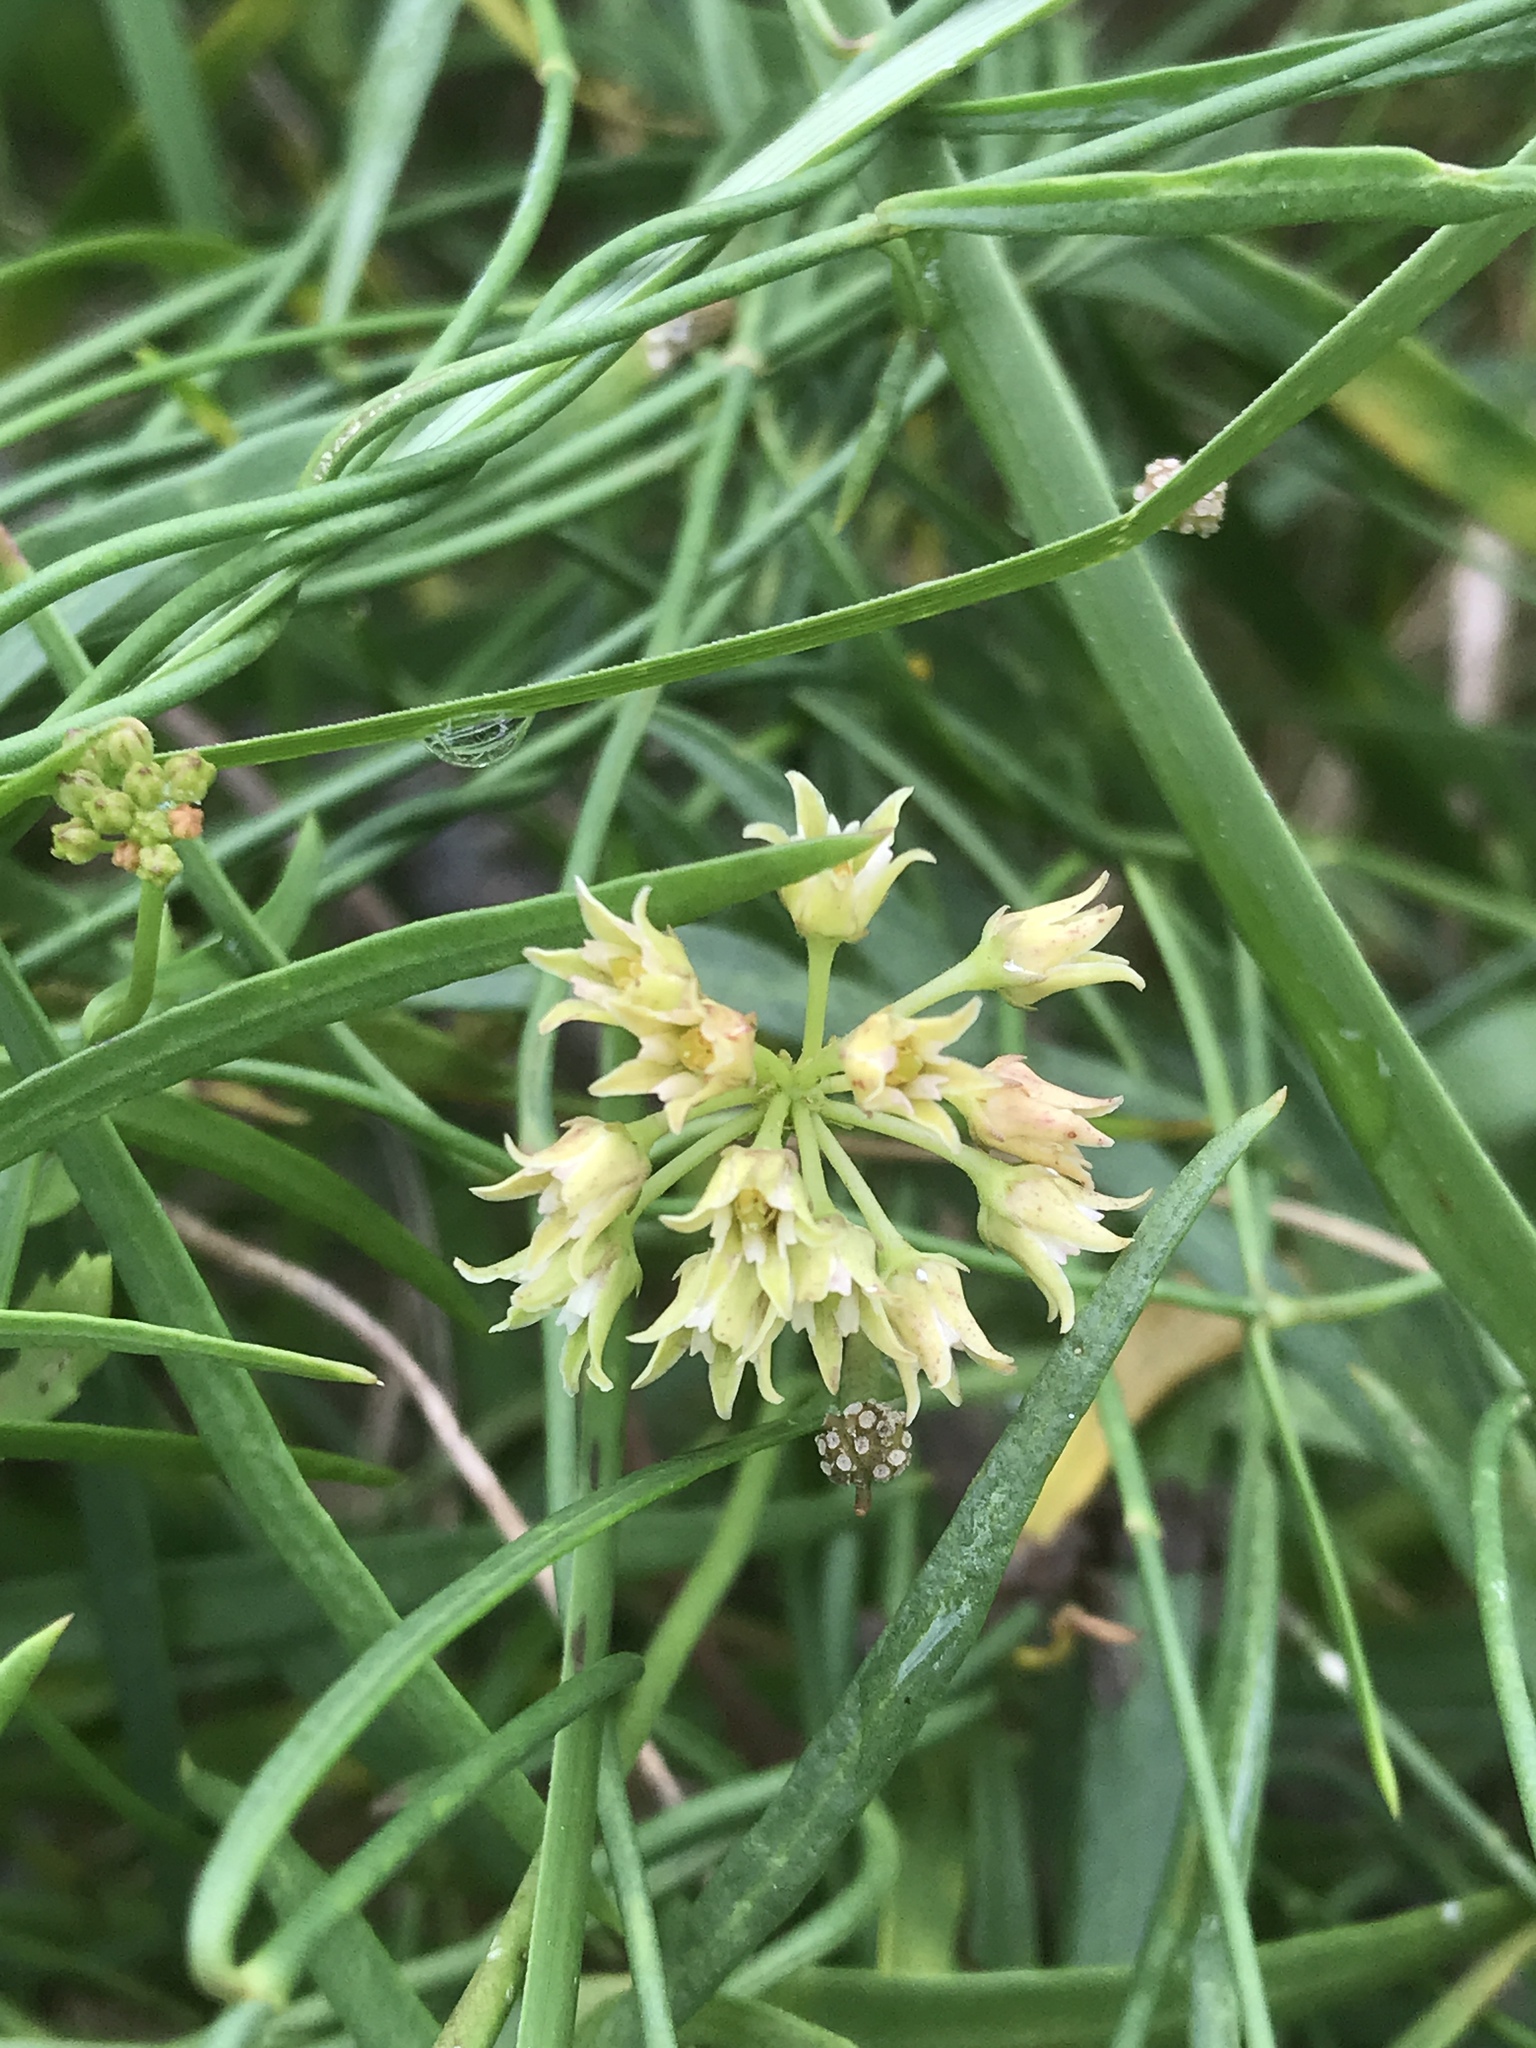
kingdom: Plantae
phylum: Tracheophyta
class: Magnoliopsida
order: Gentianales
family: Apocynaceae
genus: Pattalias
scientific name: Pattalias
